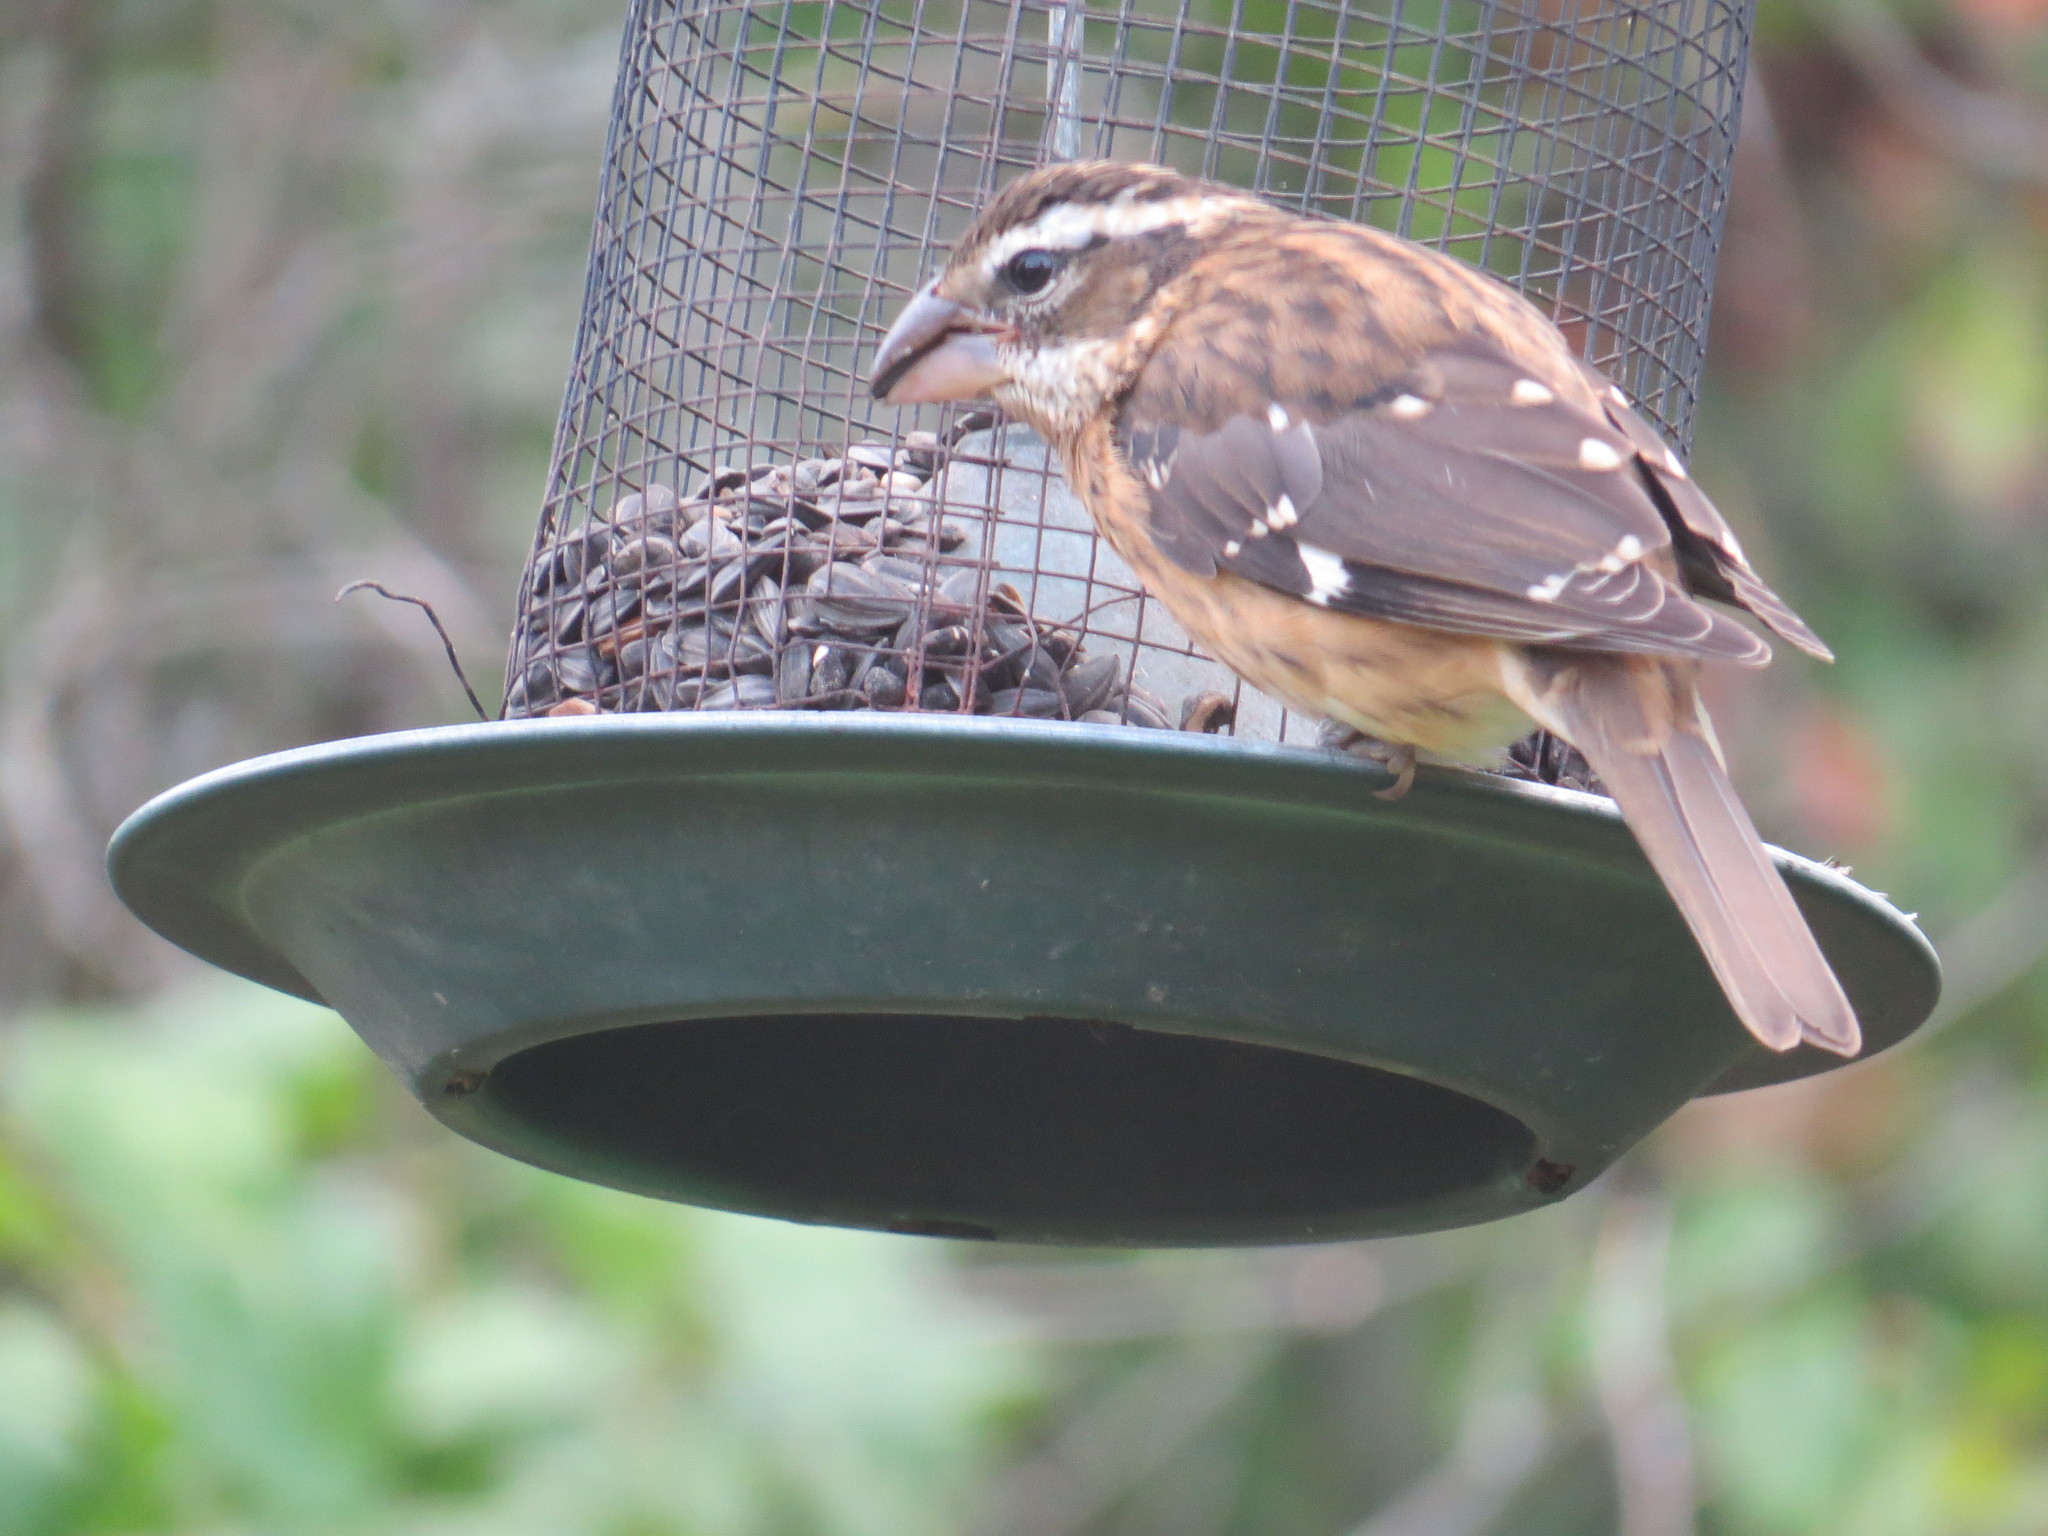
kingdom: Animalia
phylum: Chordata
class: Aves
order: Passeriformes
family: Cardinalidae
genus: Pheucticus
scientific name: Pheucticus ludovicianus
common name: Rose-breasted grosbeak
